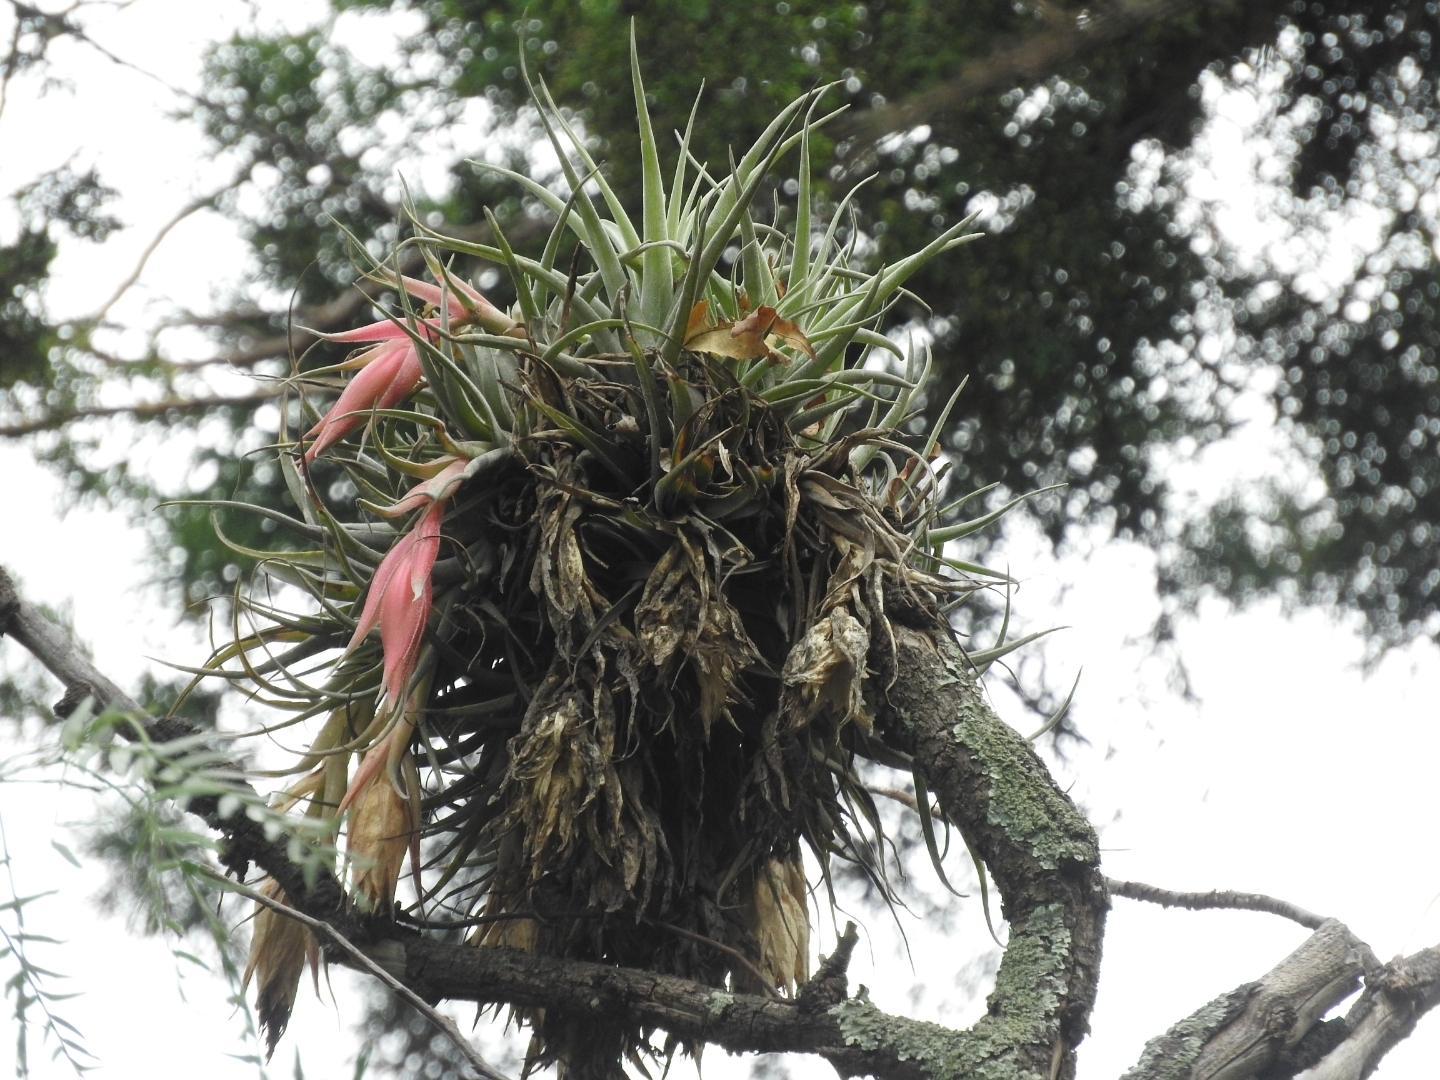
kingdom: Plantae
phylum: Tracheophyta
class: Liliopsida
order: Poales
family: Bromeliaceae
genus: Tillandsia
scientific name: Tillandsia erubescens
